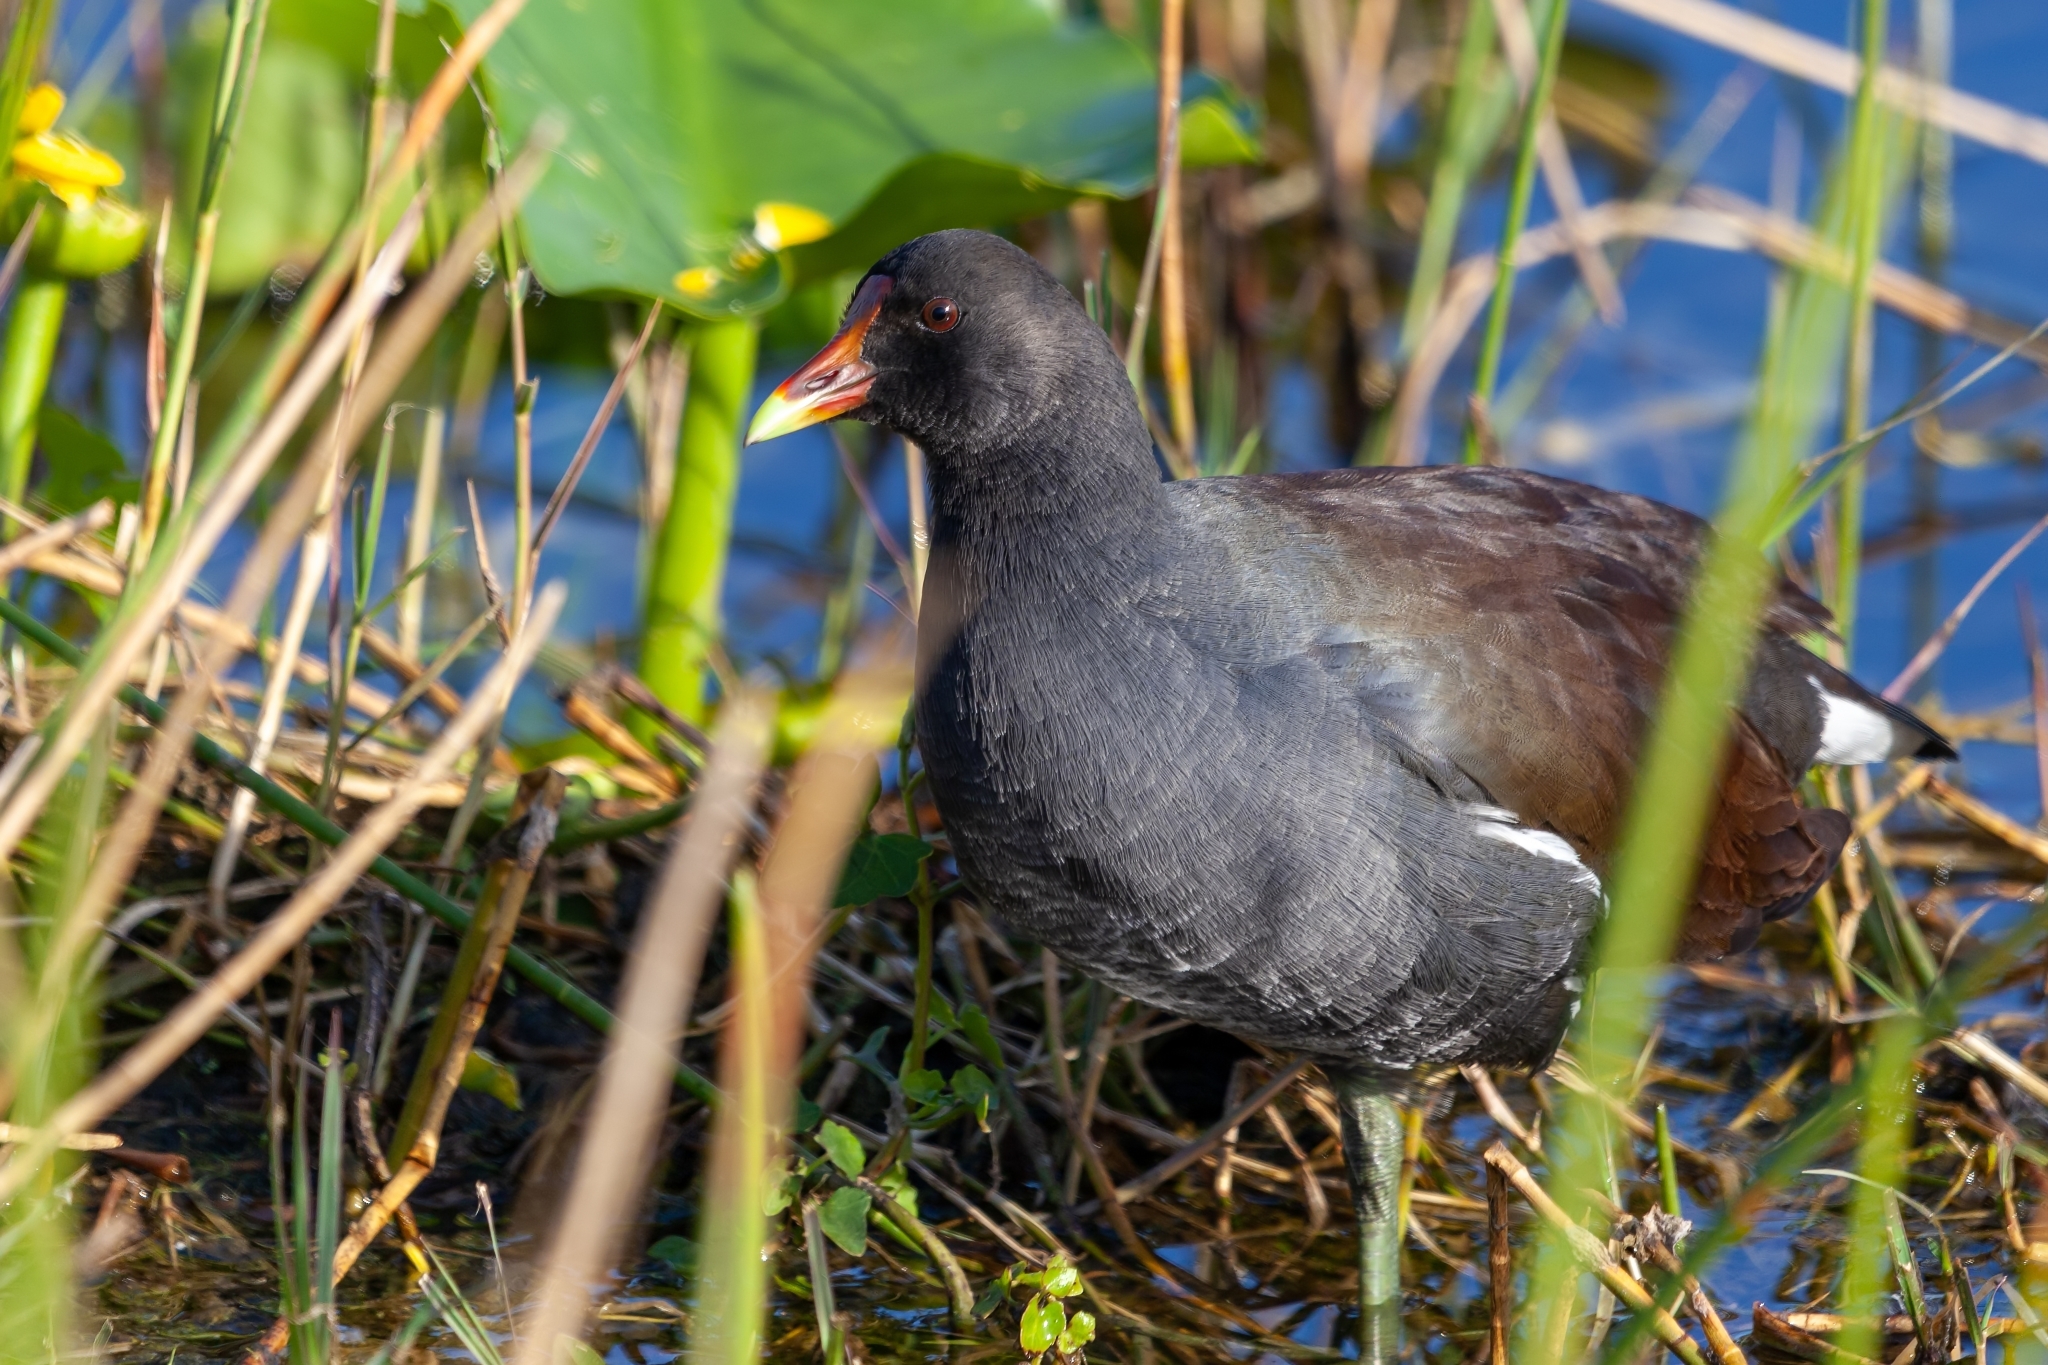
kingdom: Animalia
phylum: Chordata
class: Aves
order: Gruiformes
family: Rallidae
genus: Gallinula
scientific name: Gallinula chloropus
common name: Common moorhen
